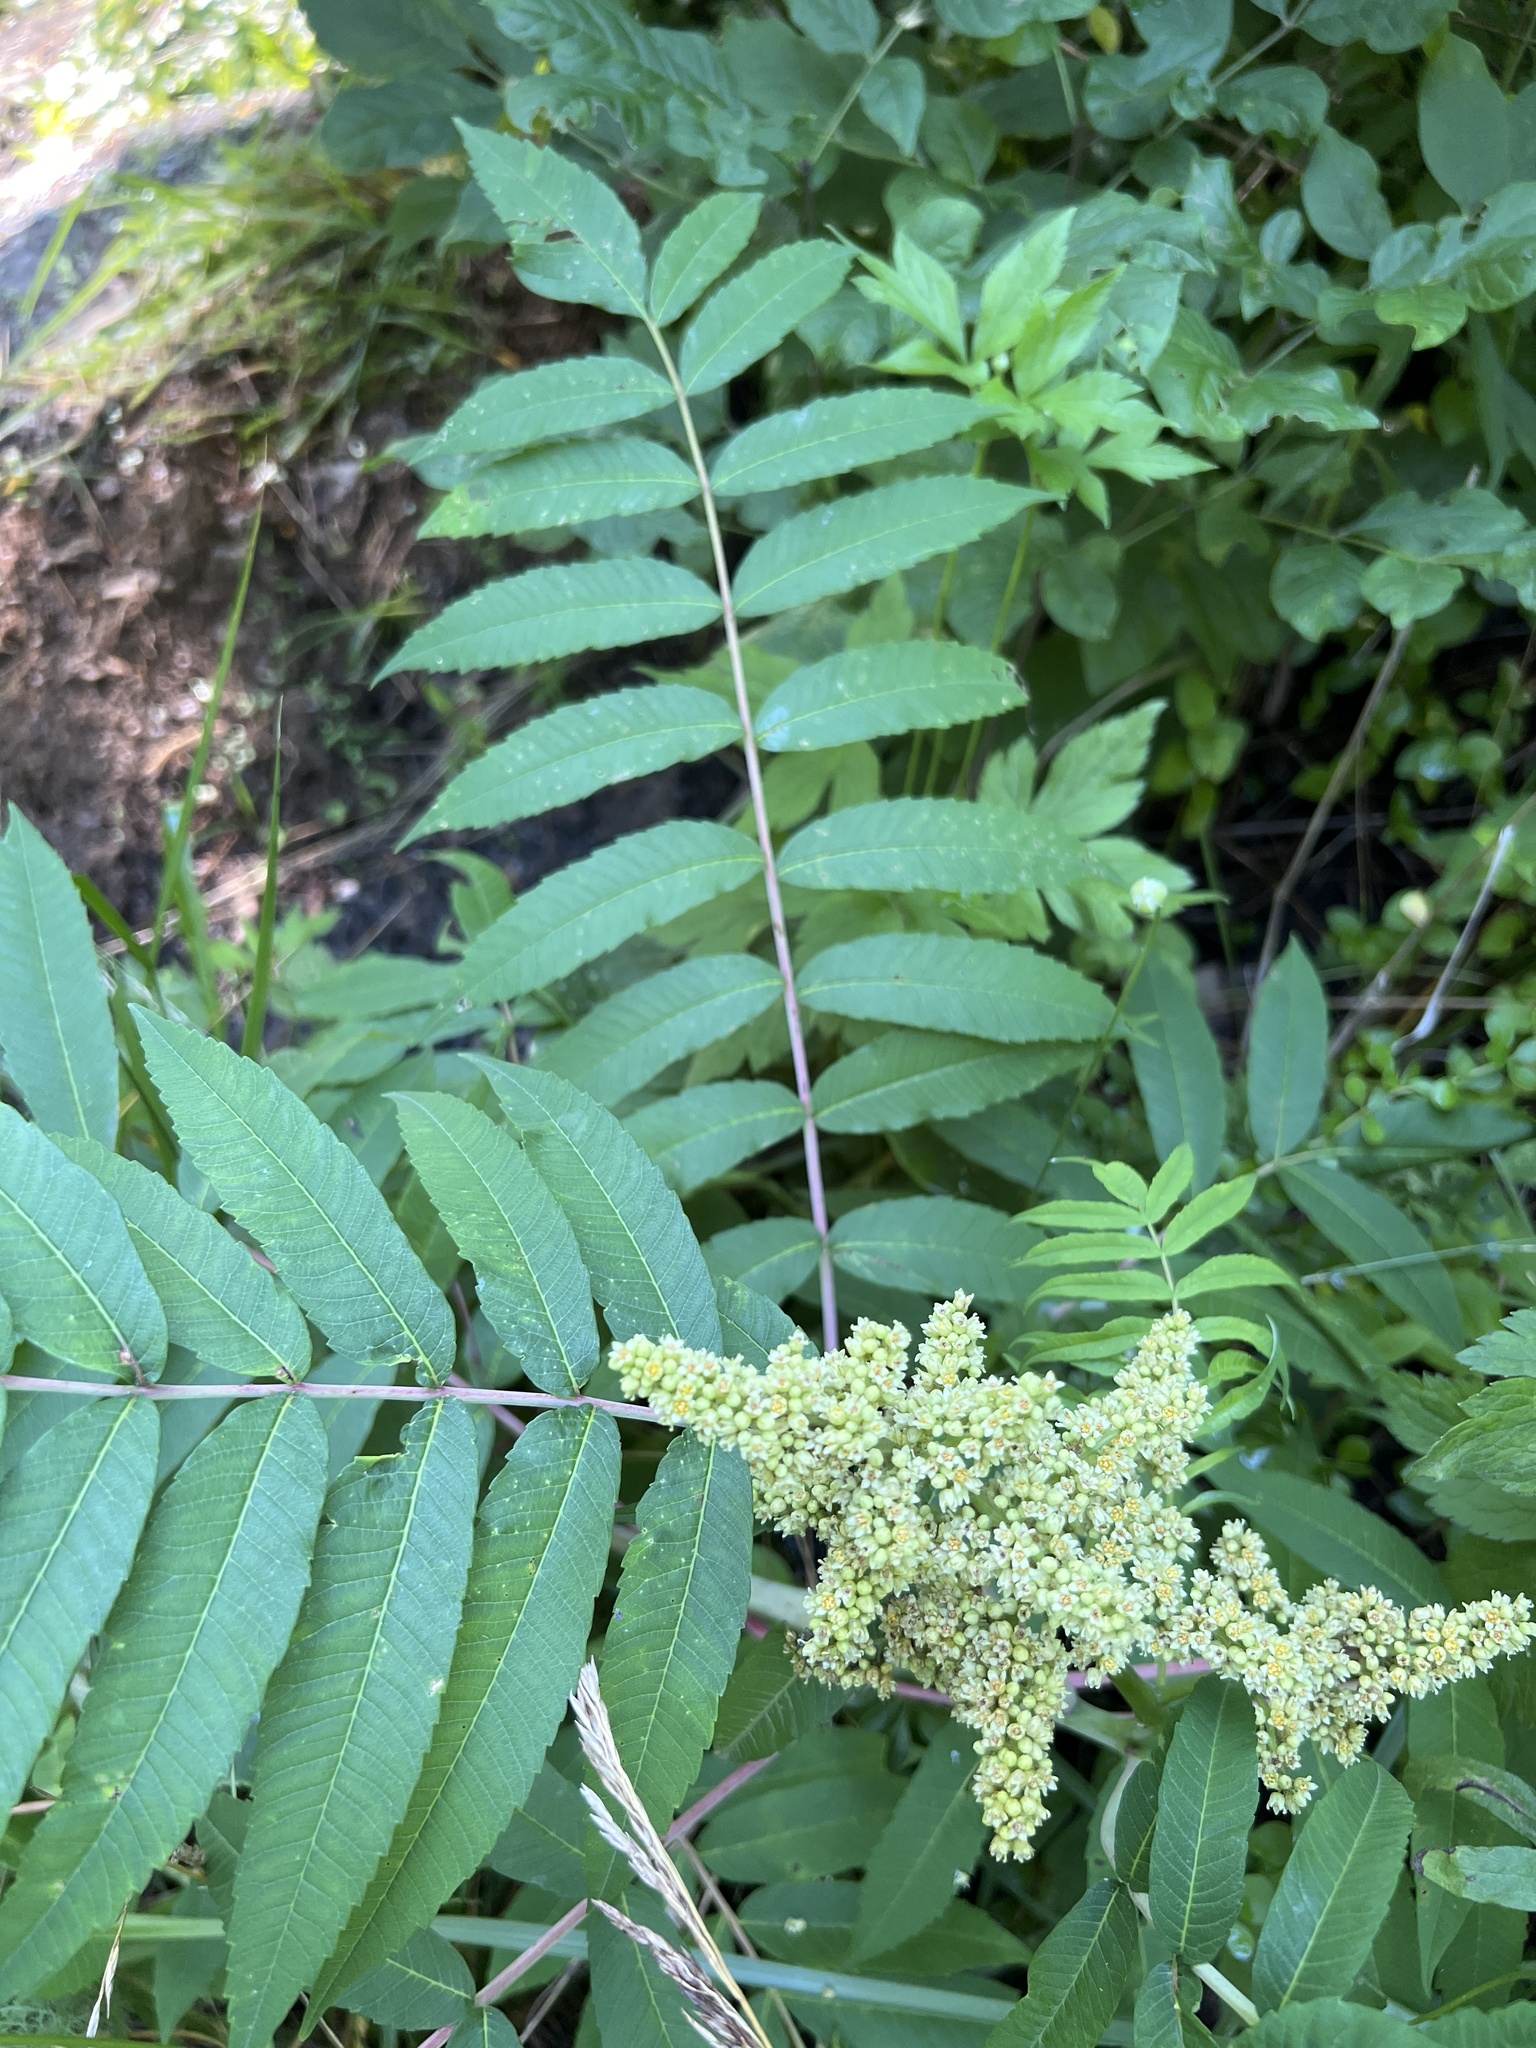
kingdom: Plantae
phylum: Tracheophyta
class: Magnoliopsida
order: Sapindales
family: Anacardiaceae
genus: Rhus
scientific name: Rhus glabra
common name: Scarlet sumac
